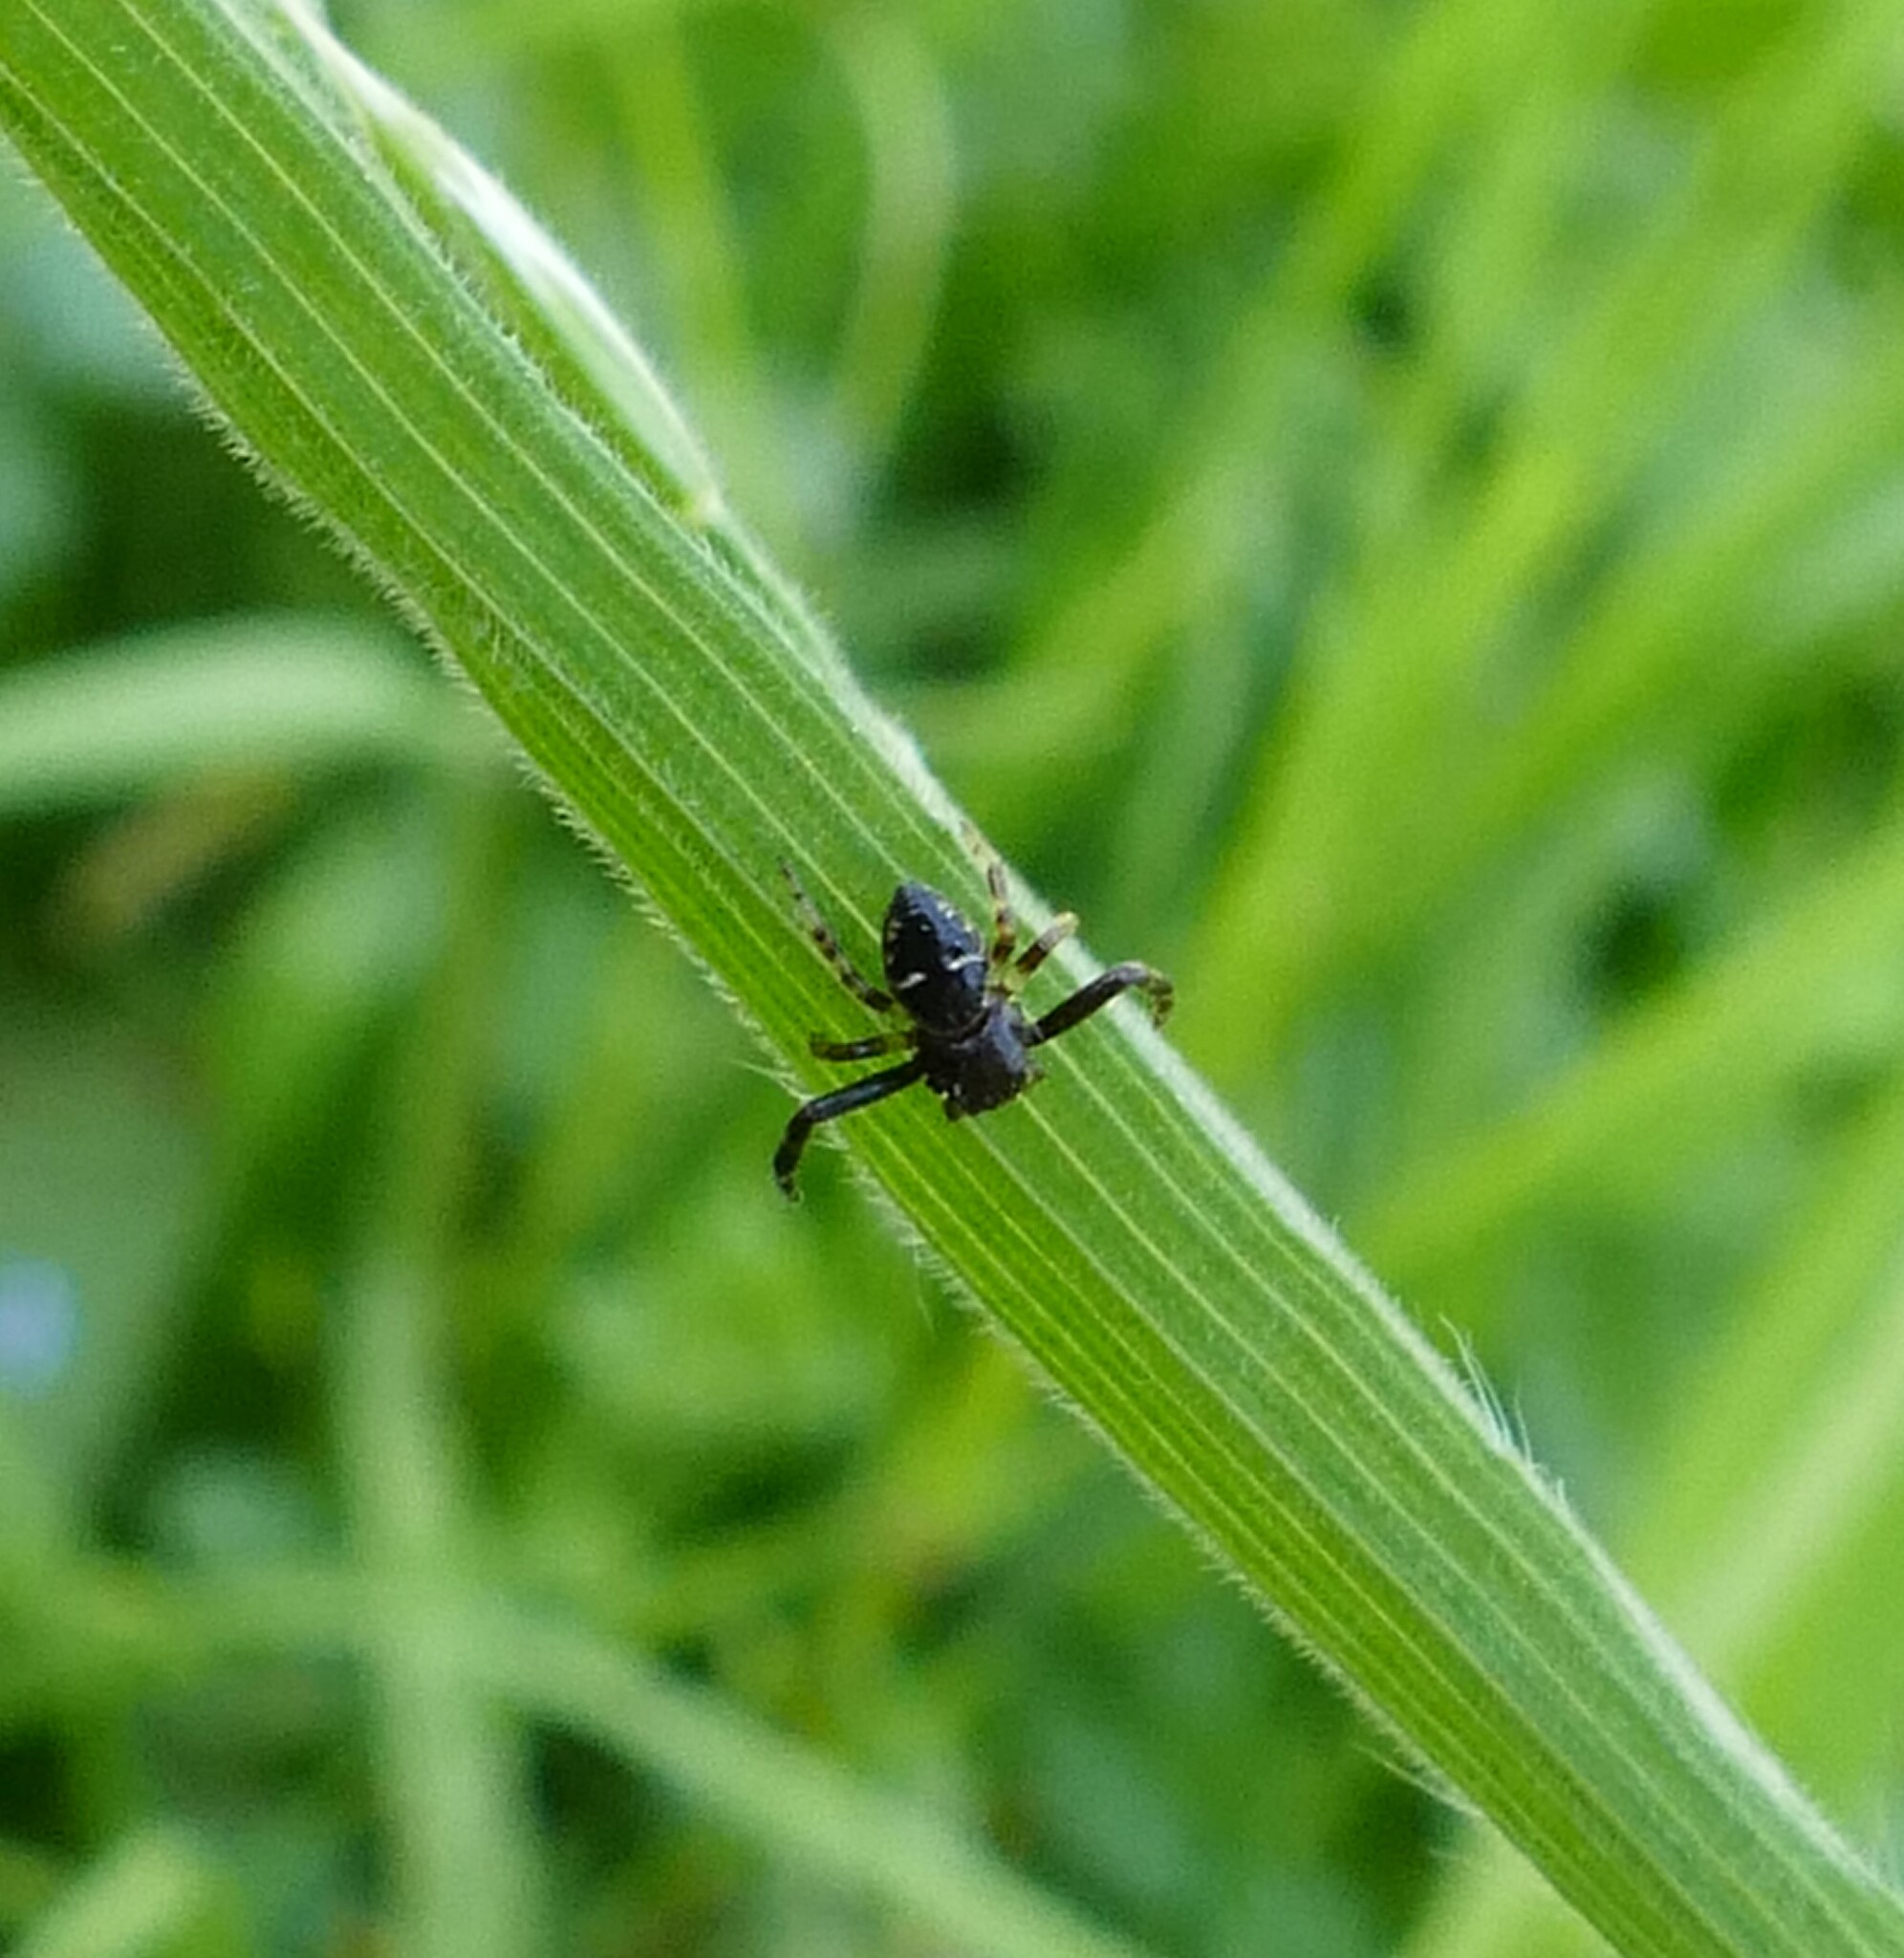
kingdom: Animalia
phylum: Arthropoda
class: Arachnida
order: Araneae
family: Thomisidae
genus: Synema
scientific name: Synema globosum
